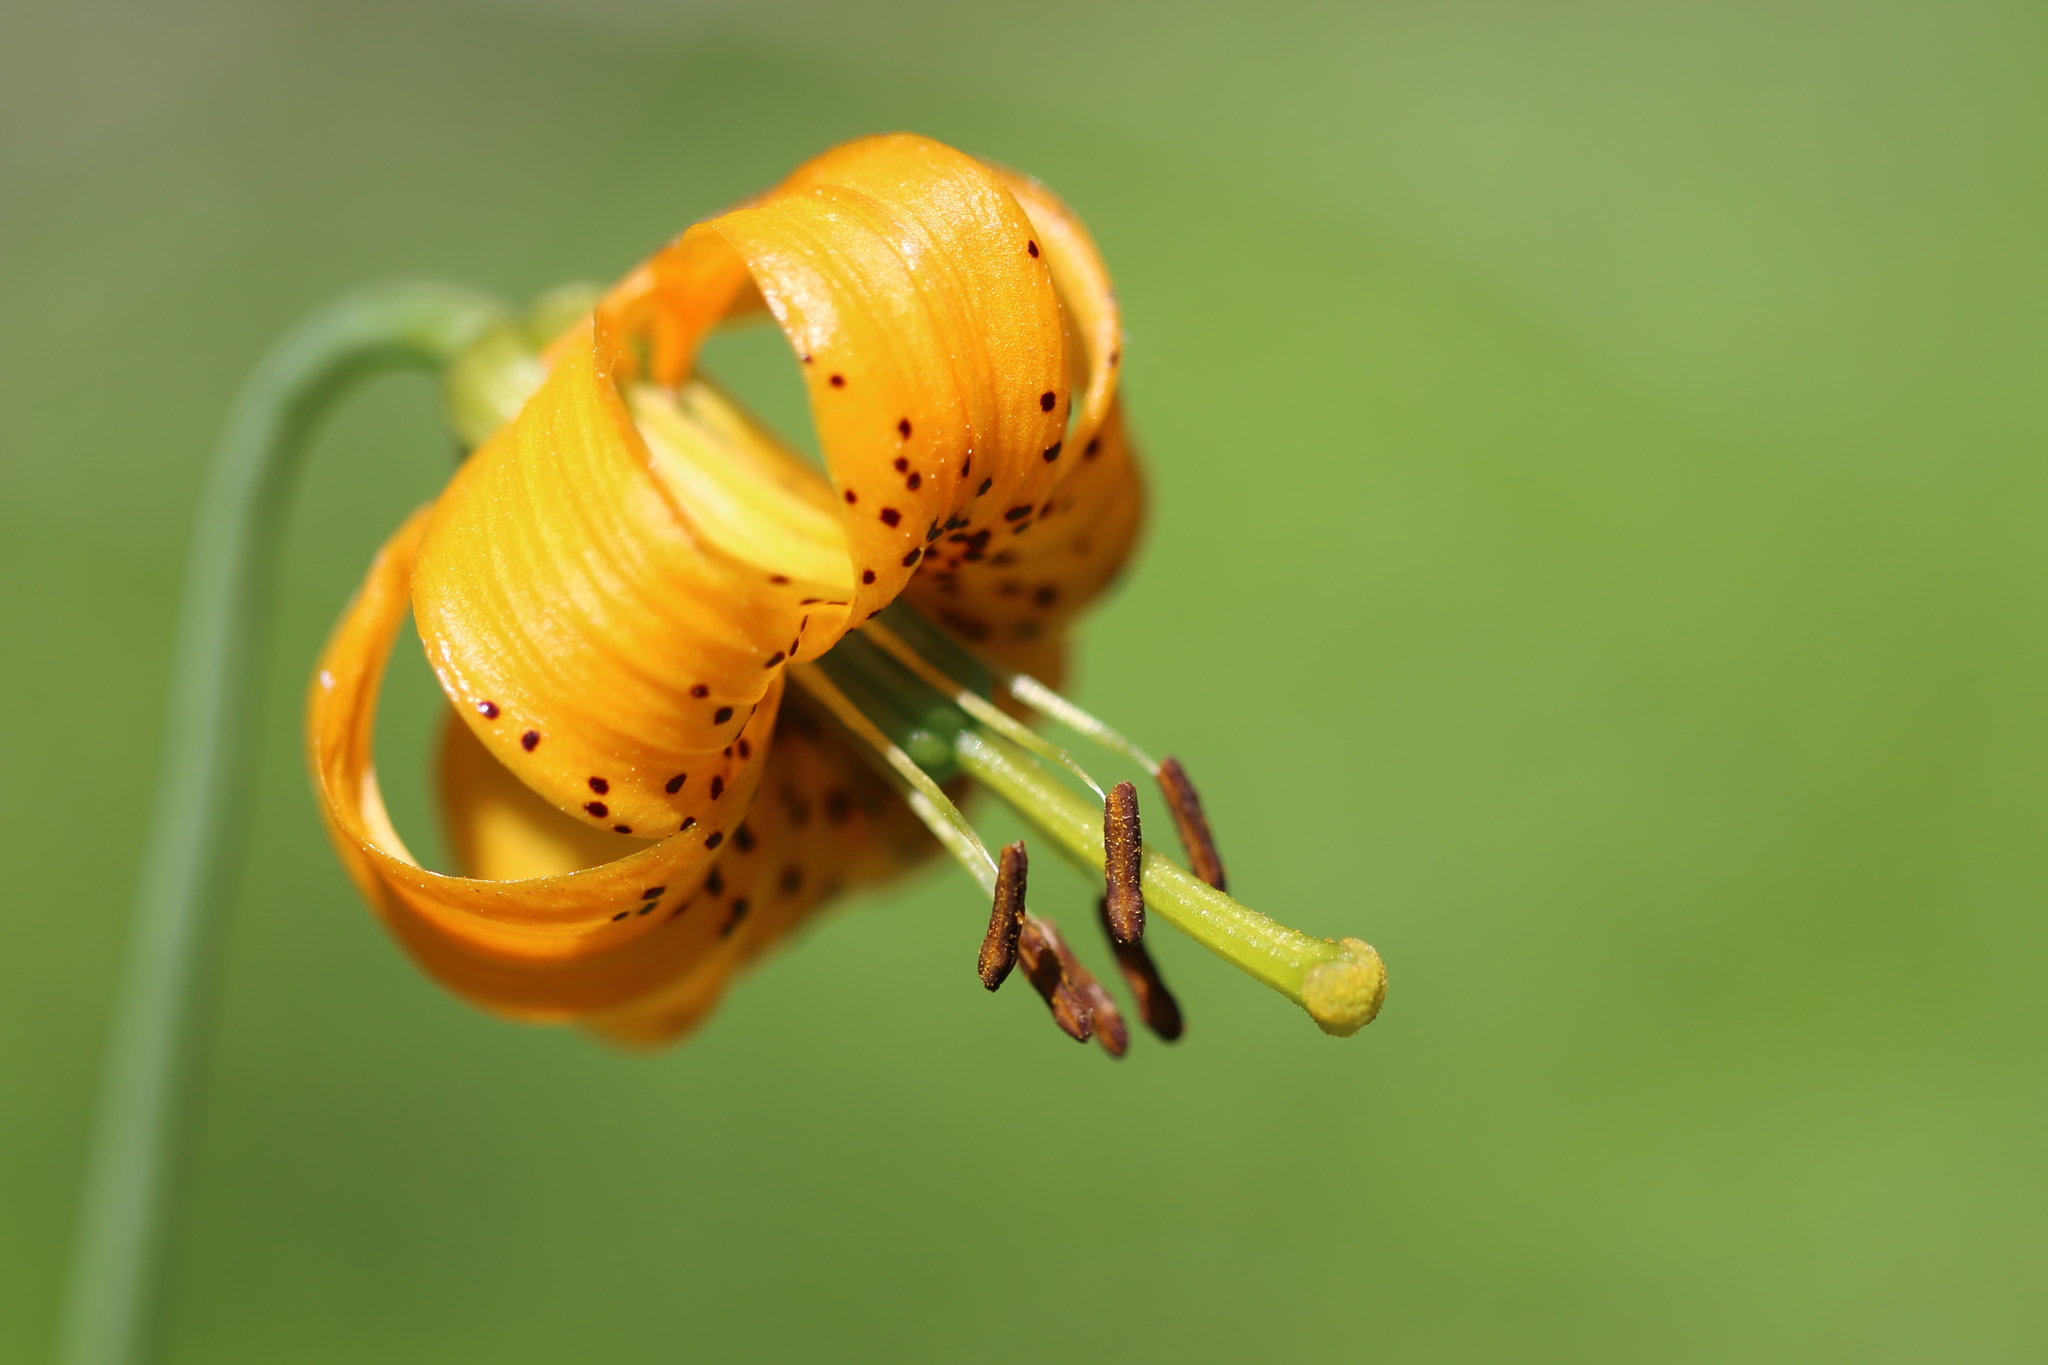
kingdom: Plantae
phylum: Tracheophyta
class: Liliopsida
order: Liliales
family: Liliaceae
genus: Lilium
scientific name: Lilium columbianum
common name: Columbia lily
